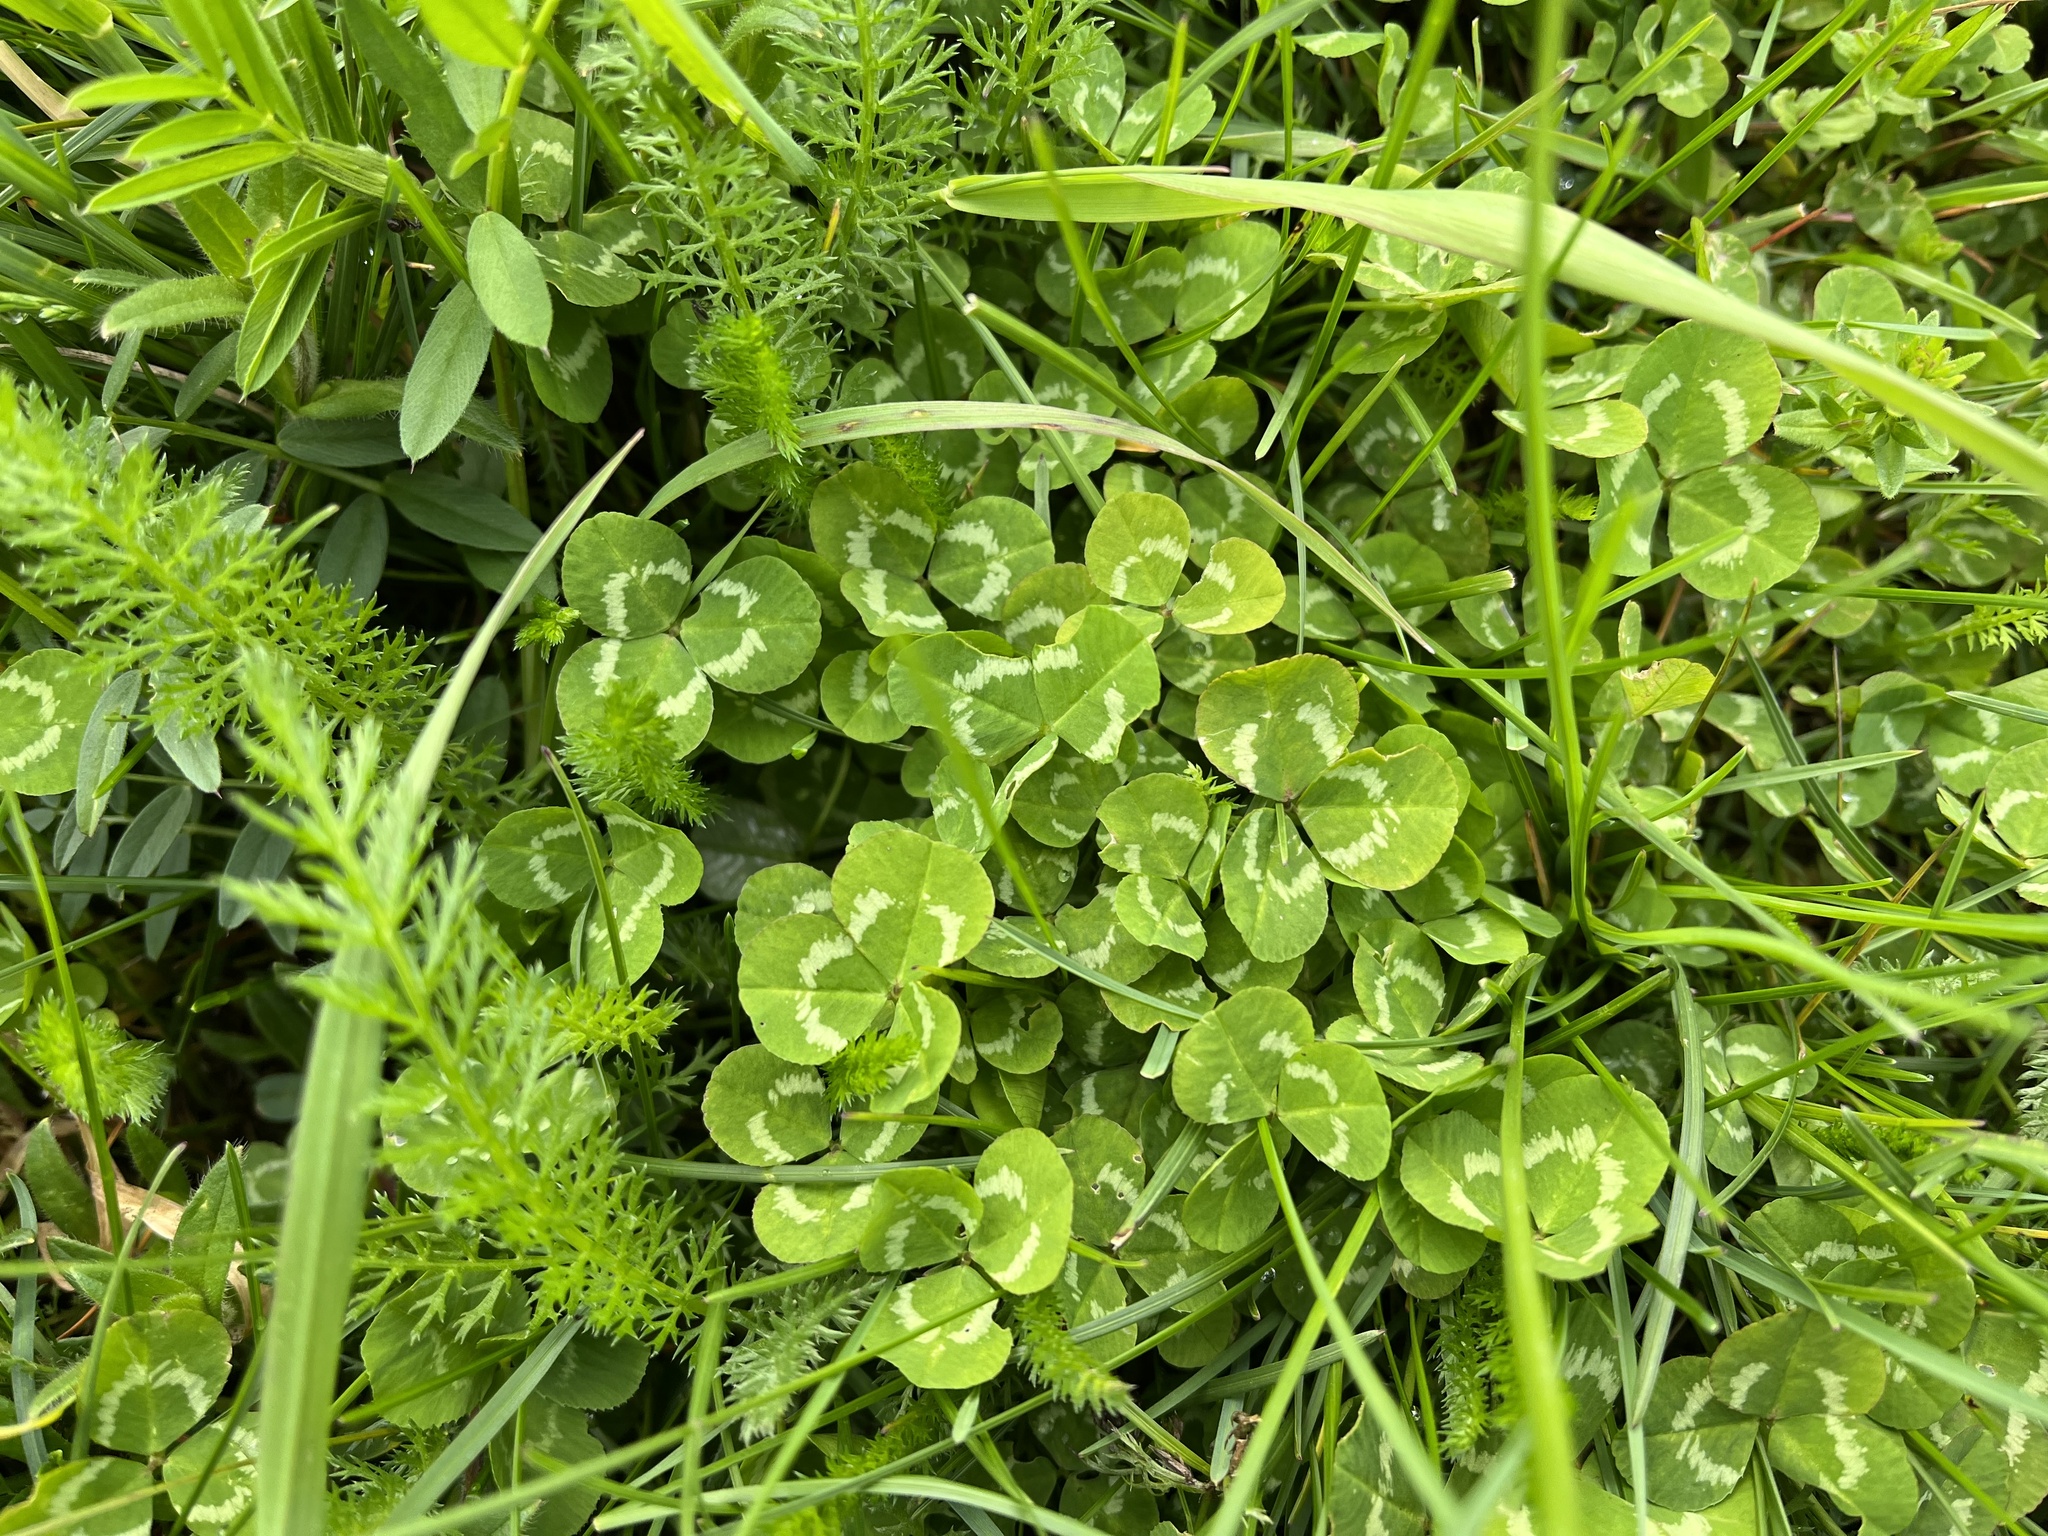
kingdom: Plantae
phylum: Tracheophyta
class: Magnoliopsida
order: Fabales
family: Fabaceae
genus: Trifolium
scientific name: Trifolium repens
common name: White clover
